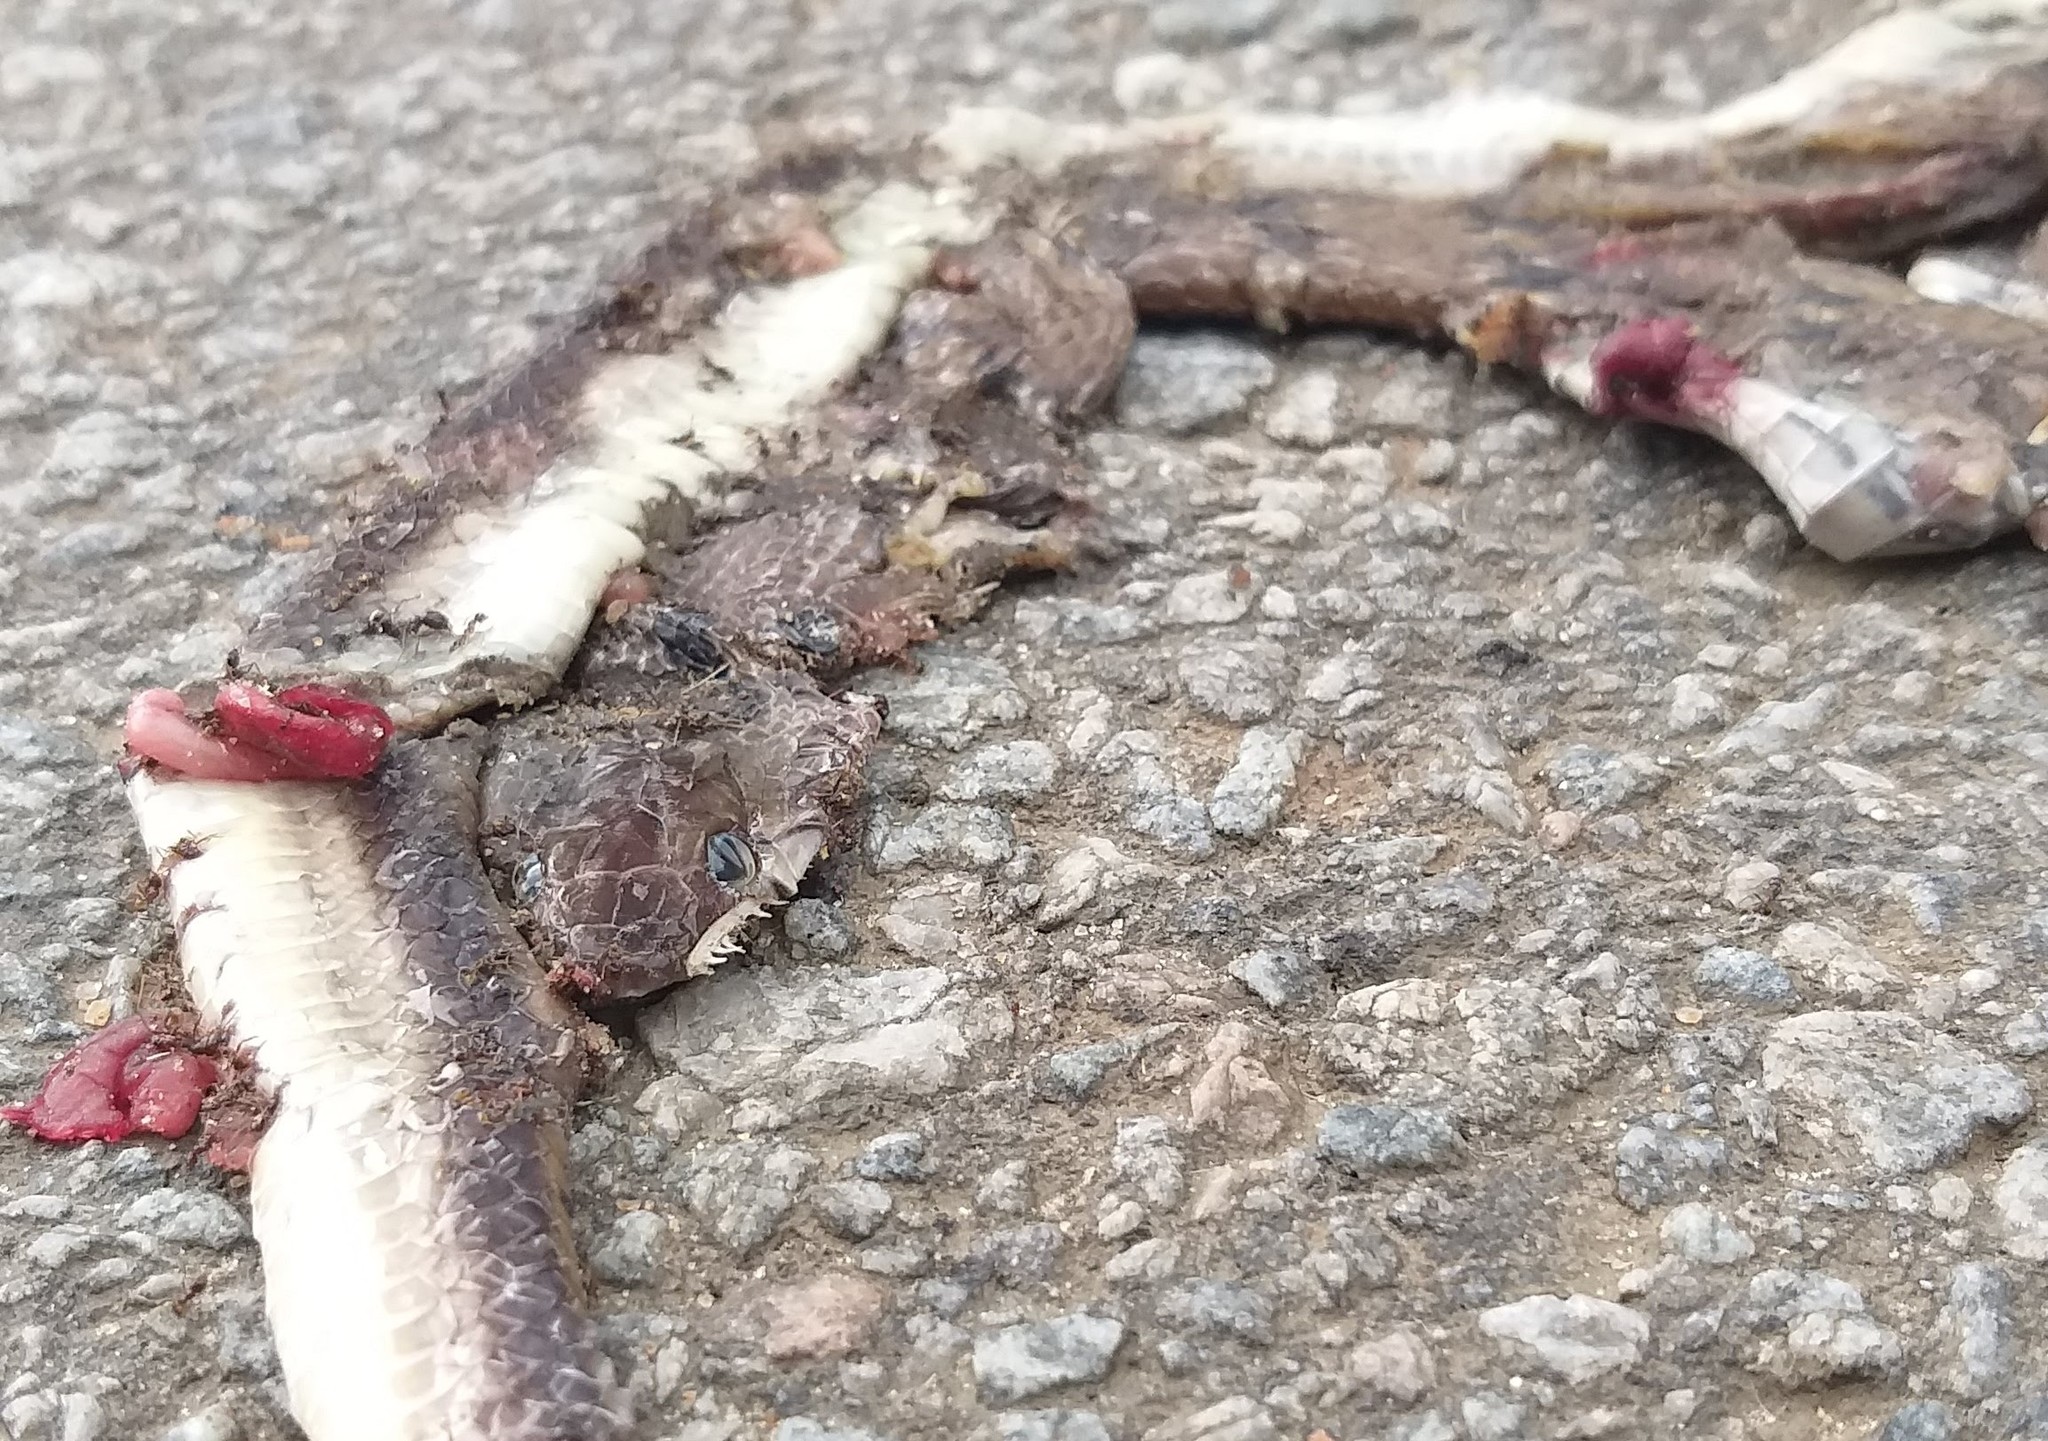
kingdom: Animalia
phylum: Chordata
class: Squamata
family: Colubridae
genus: Coelognathus
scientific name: Coelognathus helena
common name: Trinket snake
